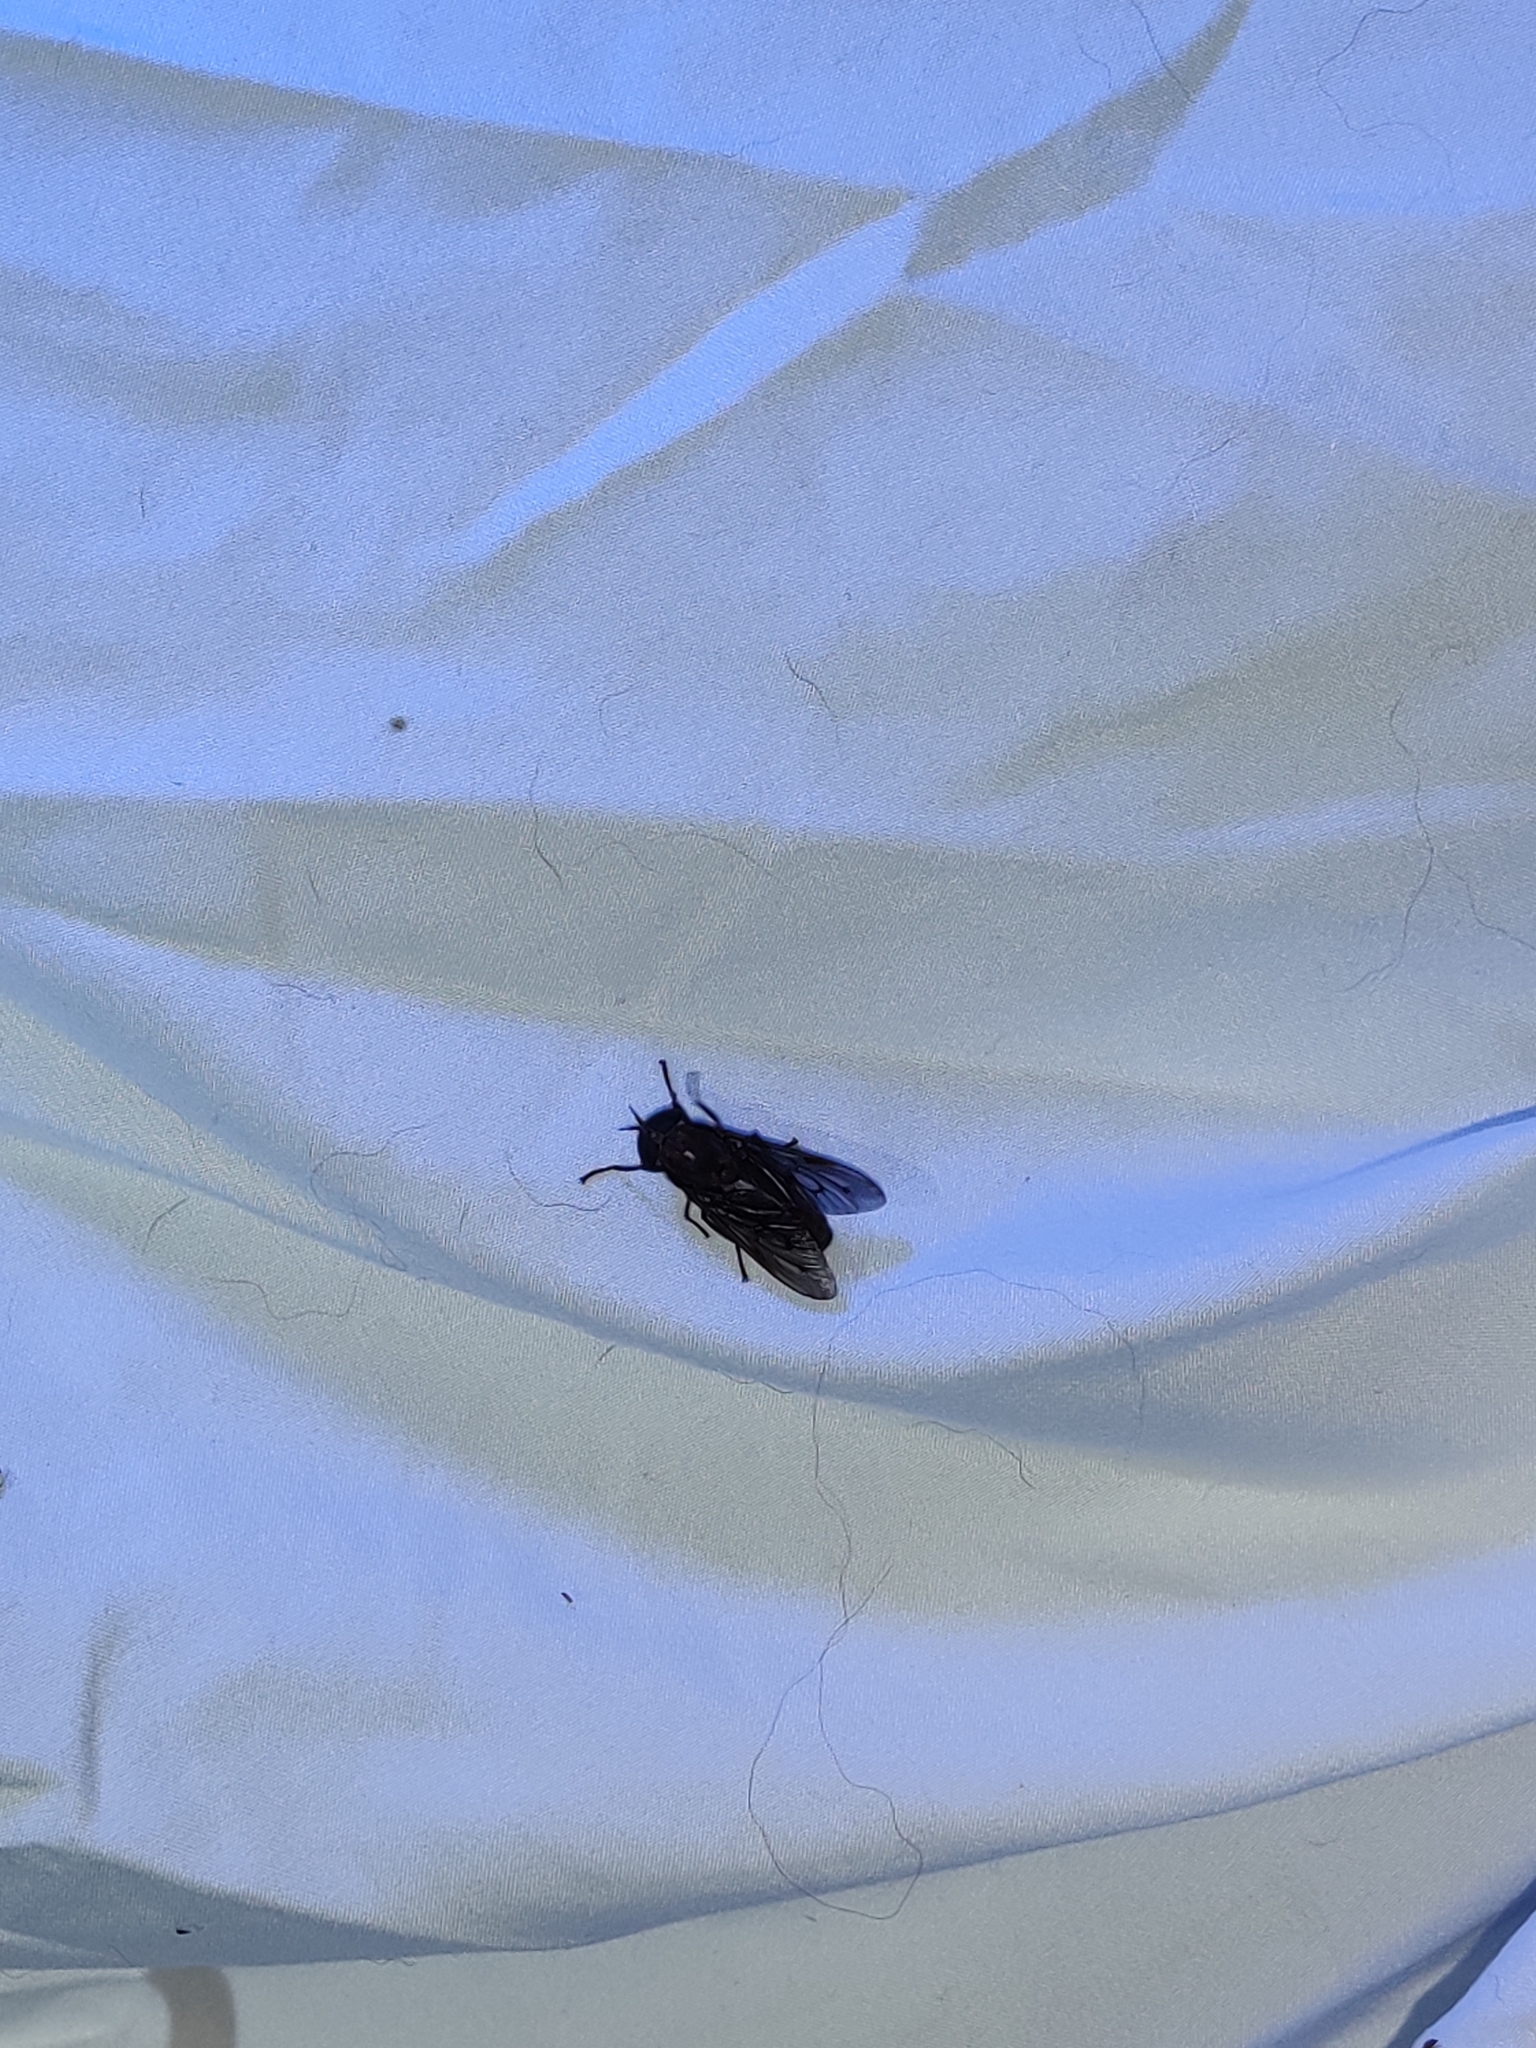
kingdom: Animalia
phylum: Arthropoda
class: Insecta
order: Diptera
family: Tabanidae
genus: Tabanus
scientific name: Tabanus atratus
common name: Black horse fly
